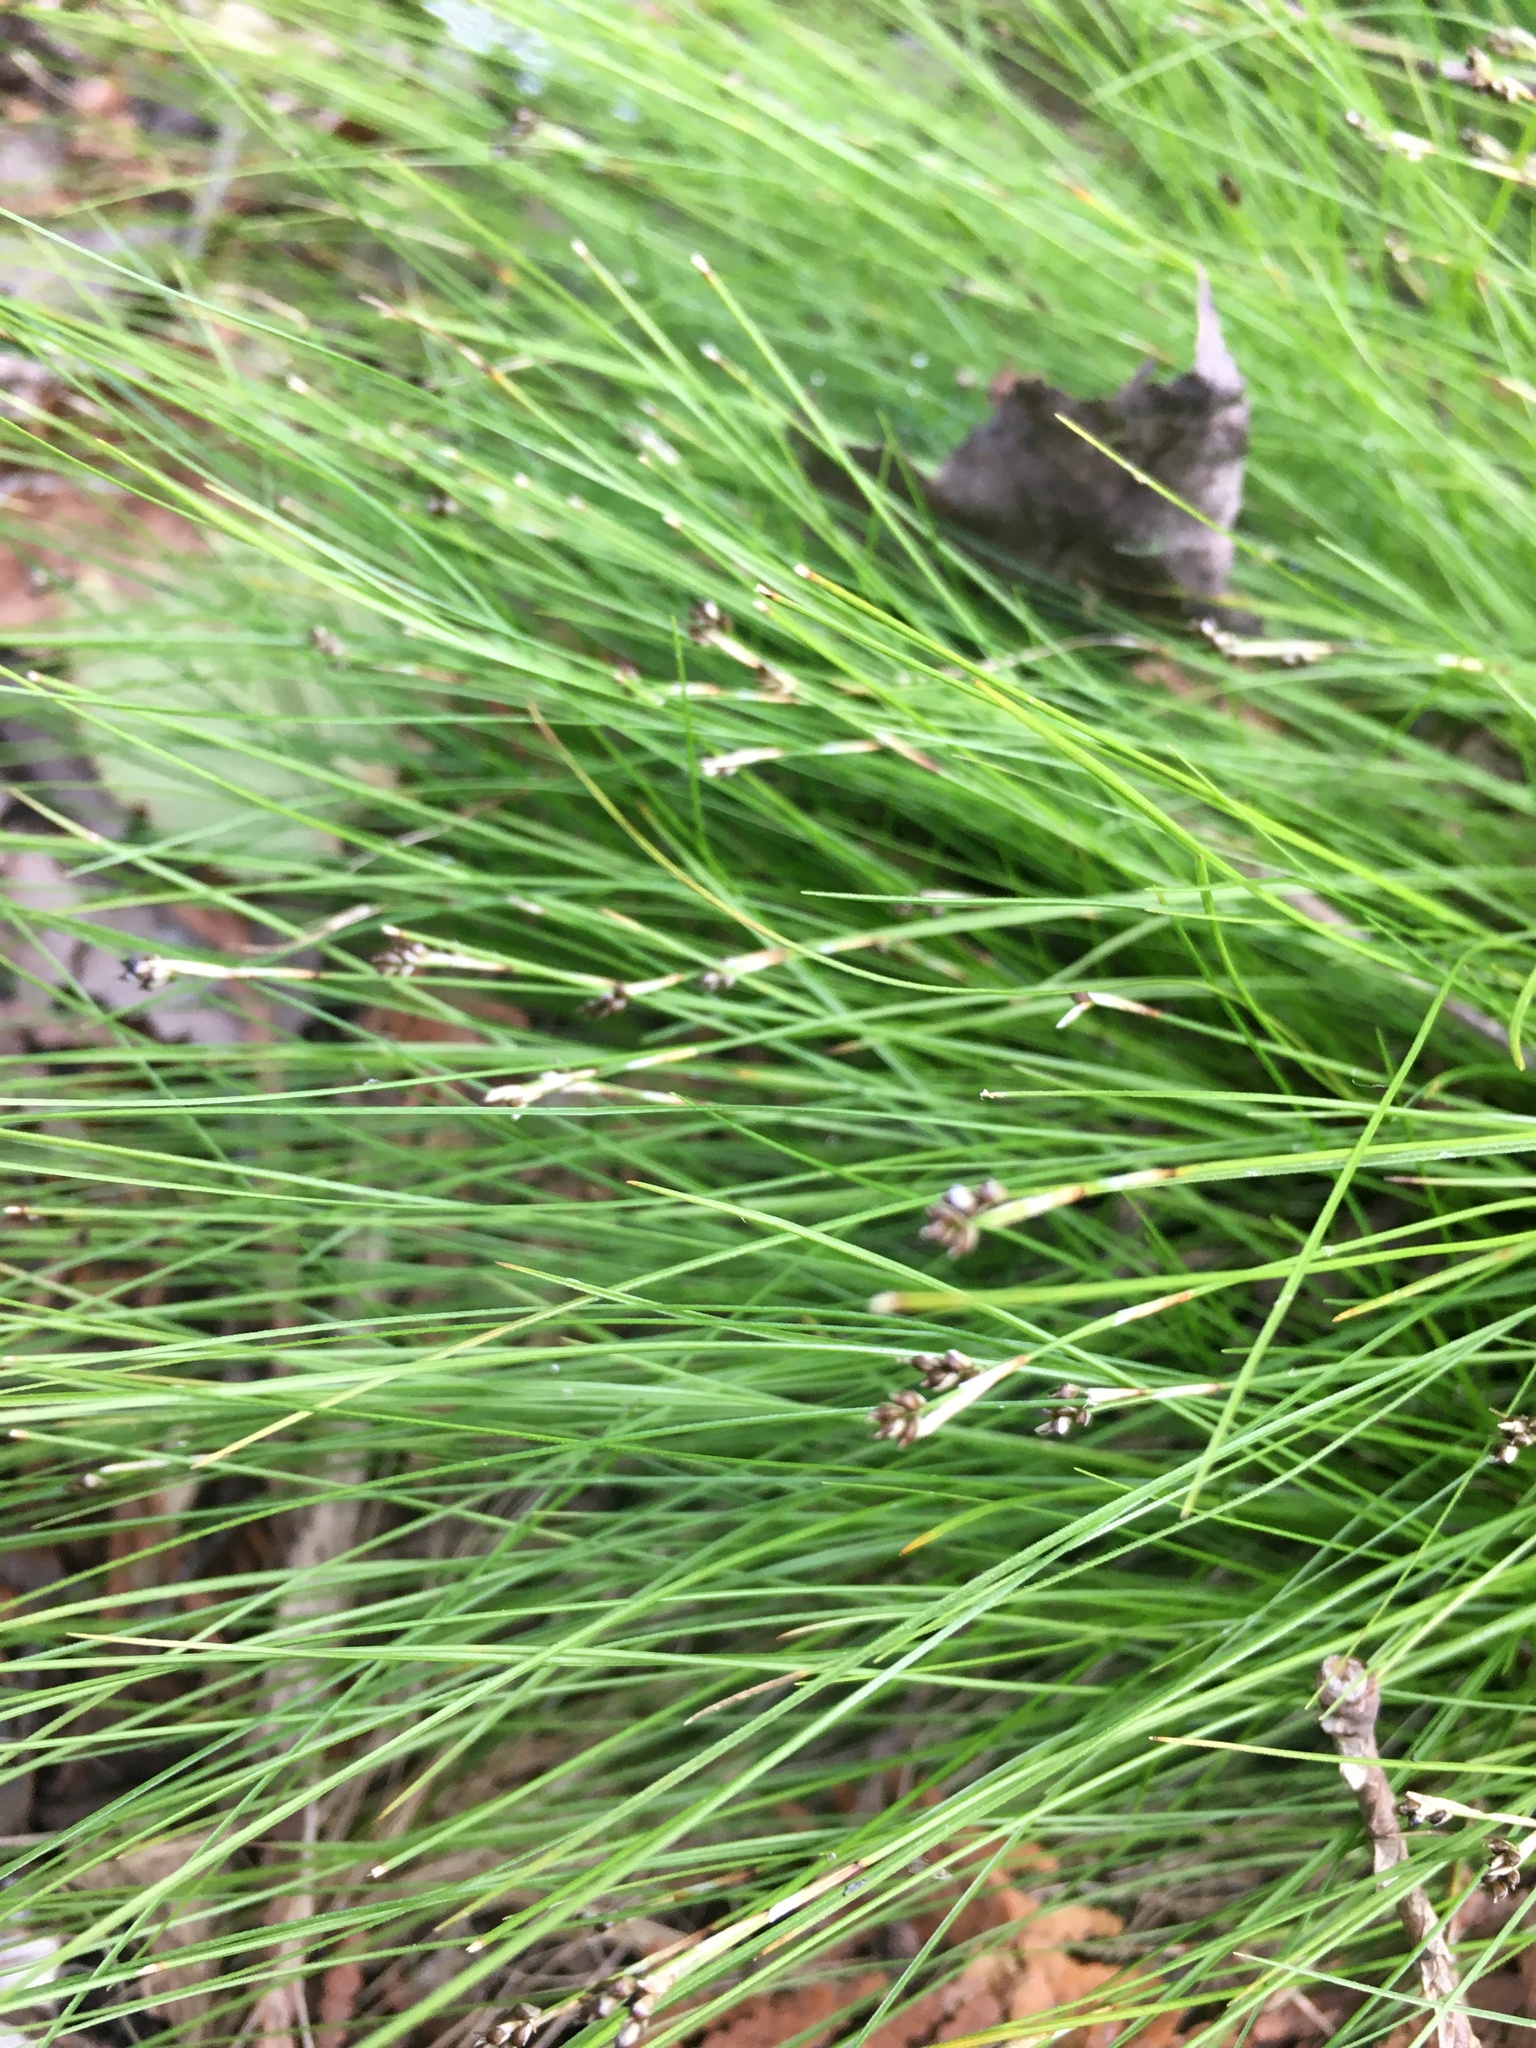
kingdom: Plantae
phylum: Tracheophyta
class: Liliopsida
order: Poales
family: Cyperaceae
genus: Carex
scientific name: Carex eburnea
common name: Bristle-leaved sedge
